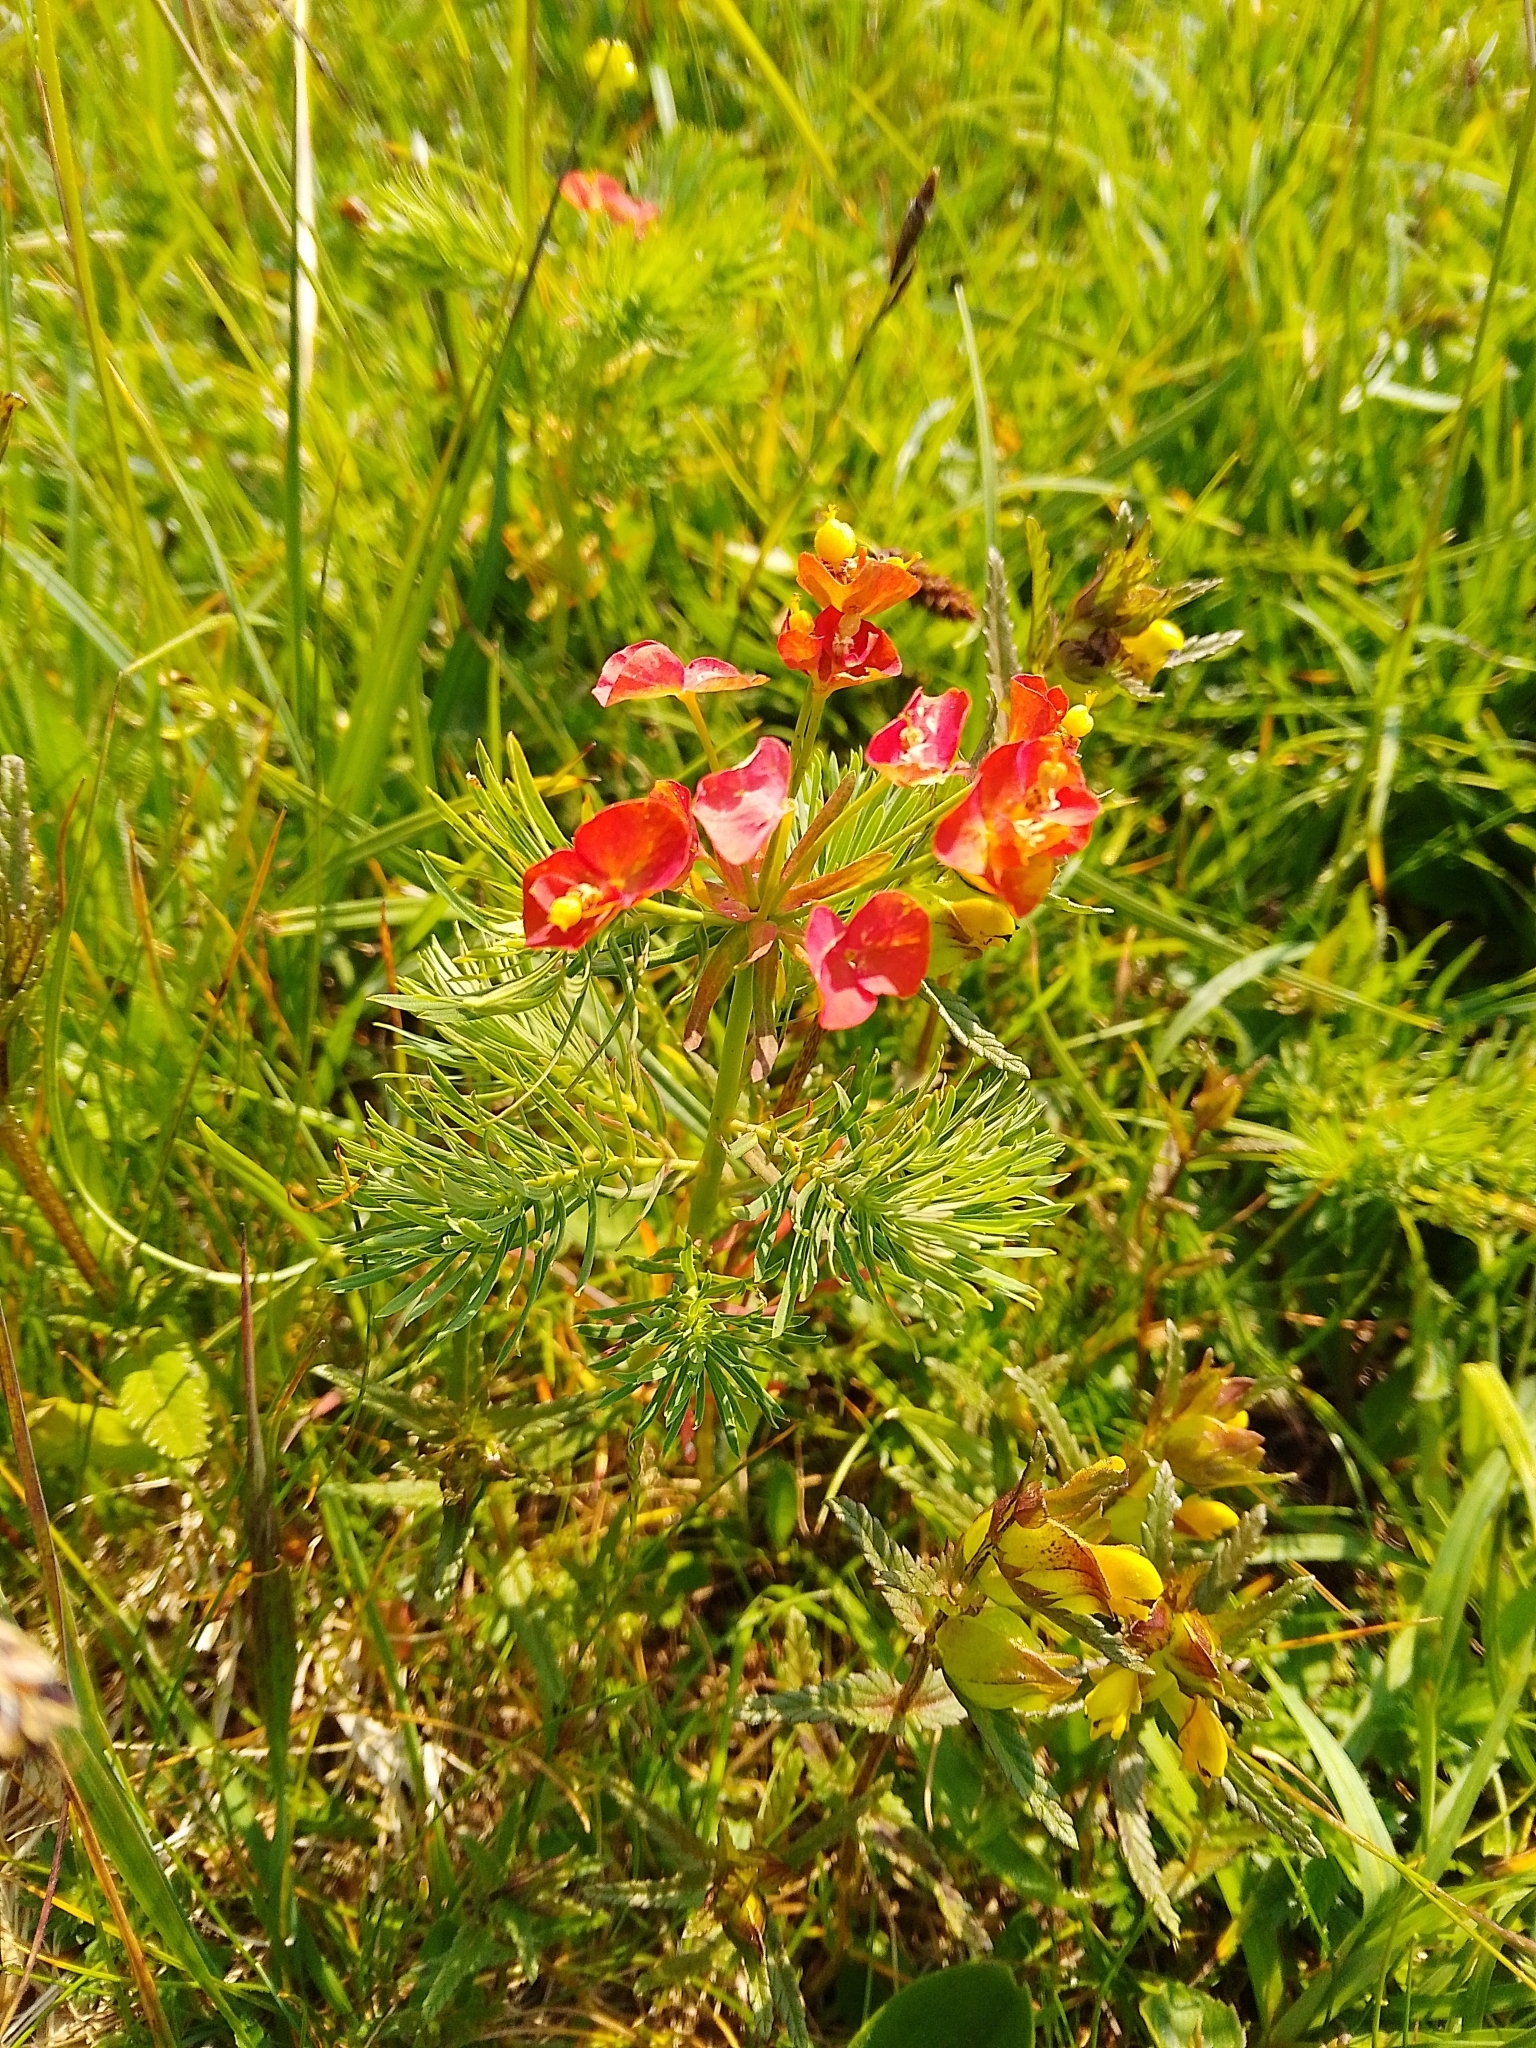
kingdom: Plantae
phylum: Tracheophyta
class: Magnoliopsida
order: Malpighiales
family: Euphorbiaceae
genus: Euphorbia
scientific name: Euphorbia cyparissias
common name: Cypress spurge
